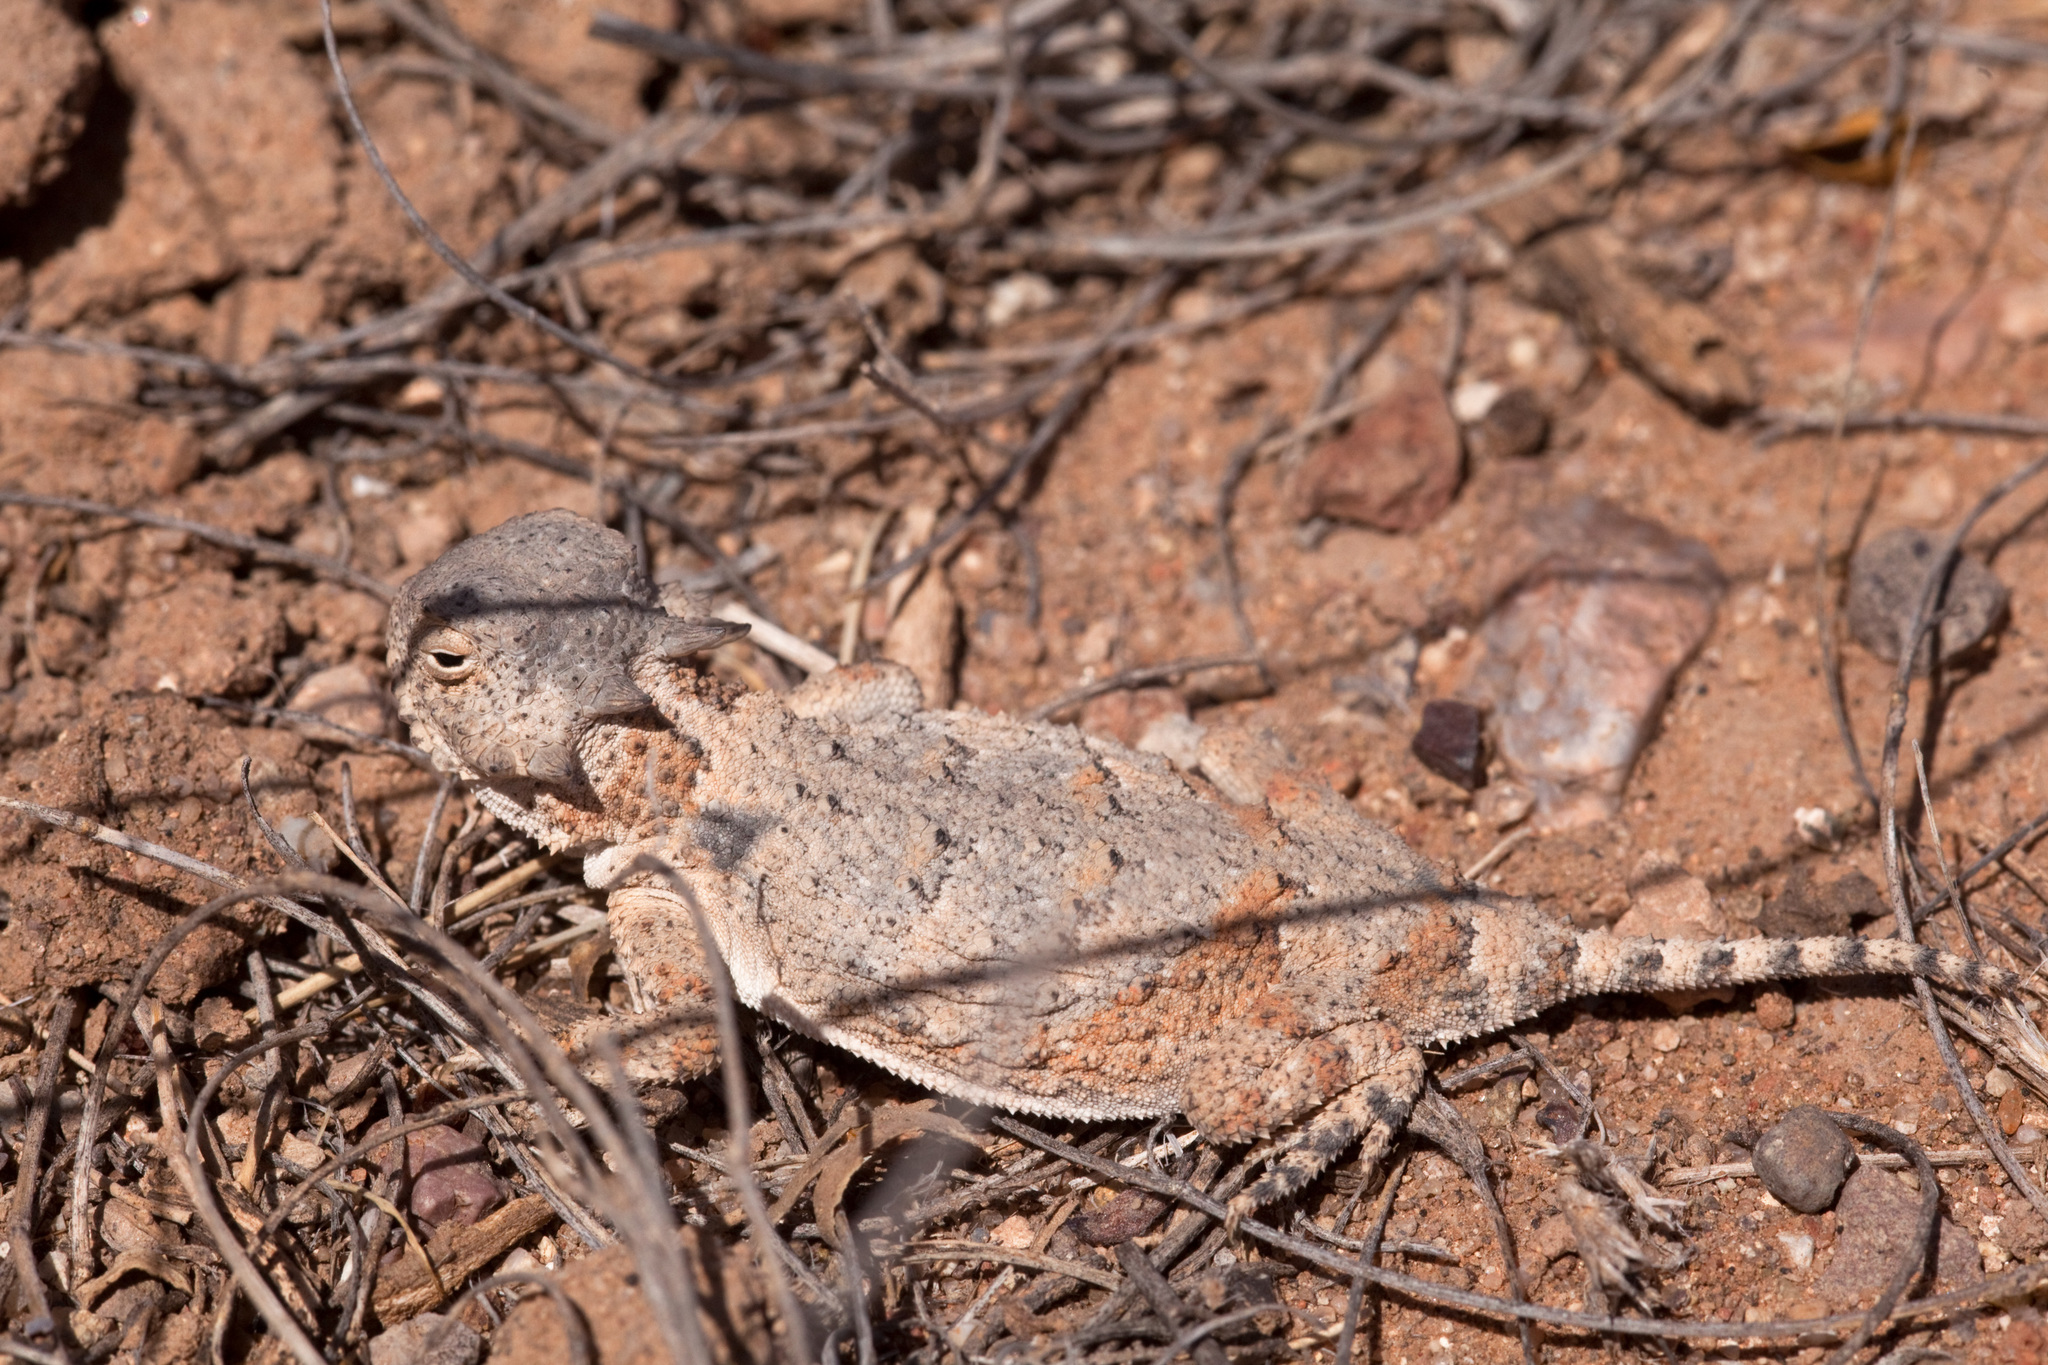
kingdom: Animalia
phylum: Chordata
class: Squamata
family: Phrynosomatidae
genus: Phrynosoma
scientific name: Phrynosoma modestum
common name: Roundtail horned lizard
